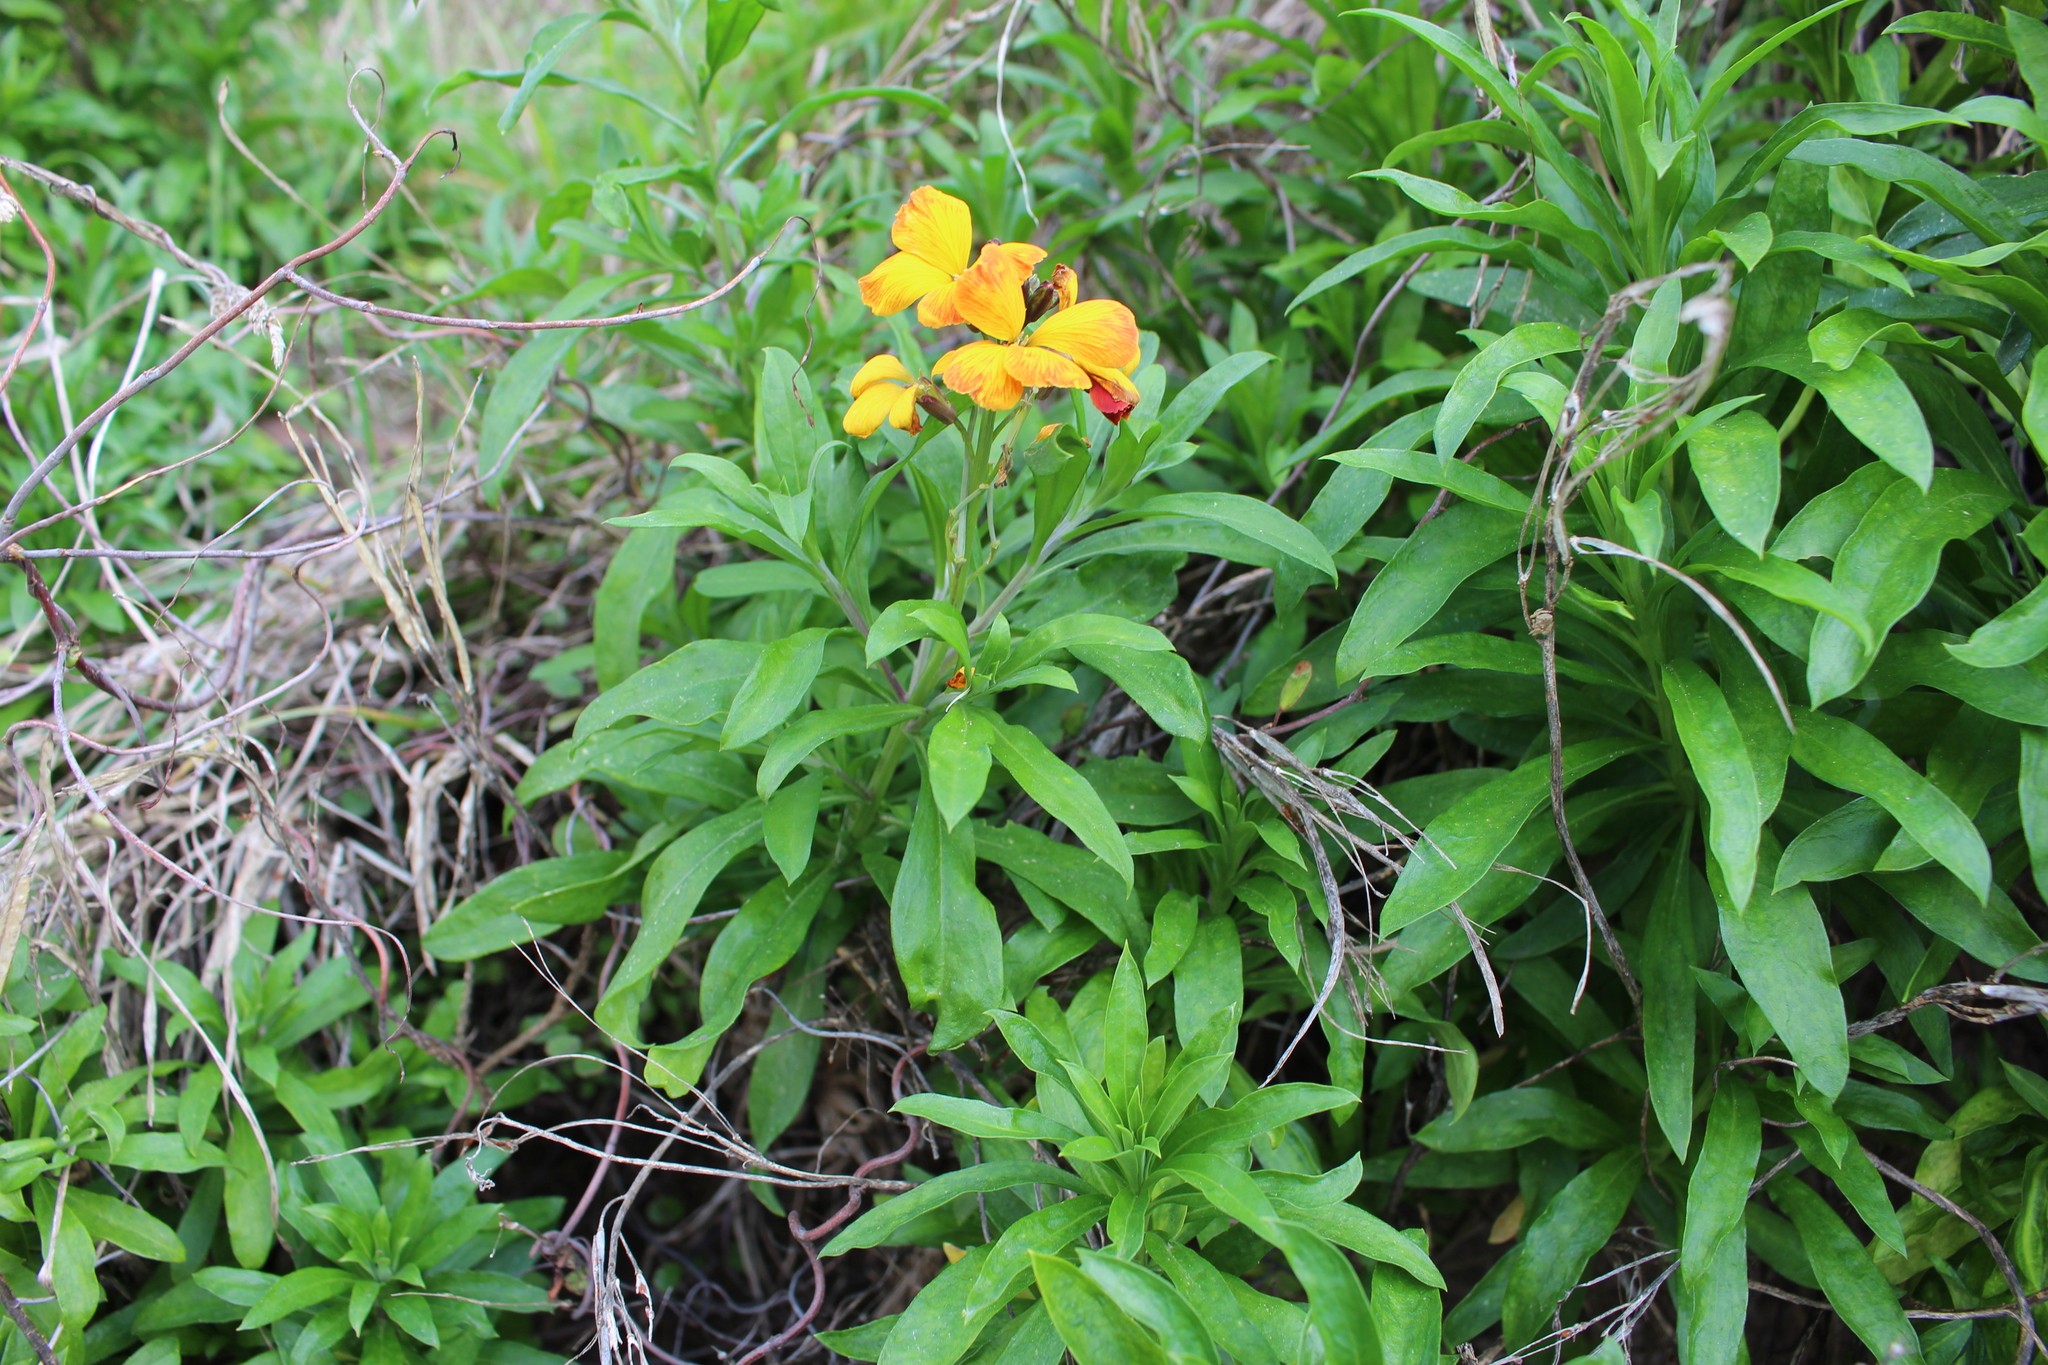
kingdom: Plantae
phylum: Tracheophyta
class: Magnoliopsida
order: Brassicales
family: Brassicaceae
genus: Erysimum
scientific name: Erysimum cheiri
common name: Wallflower
